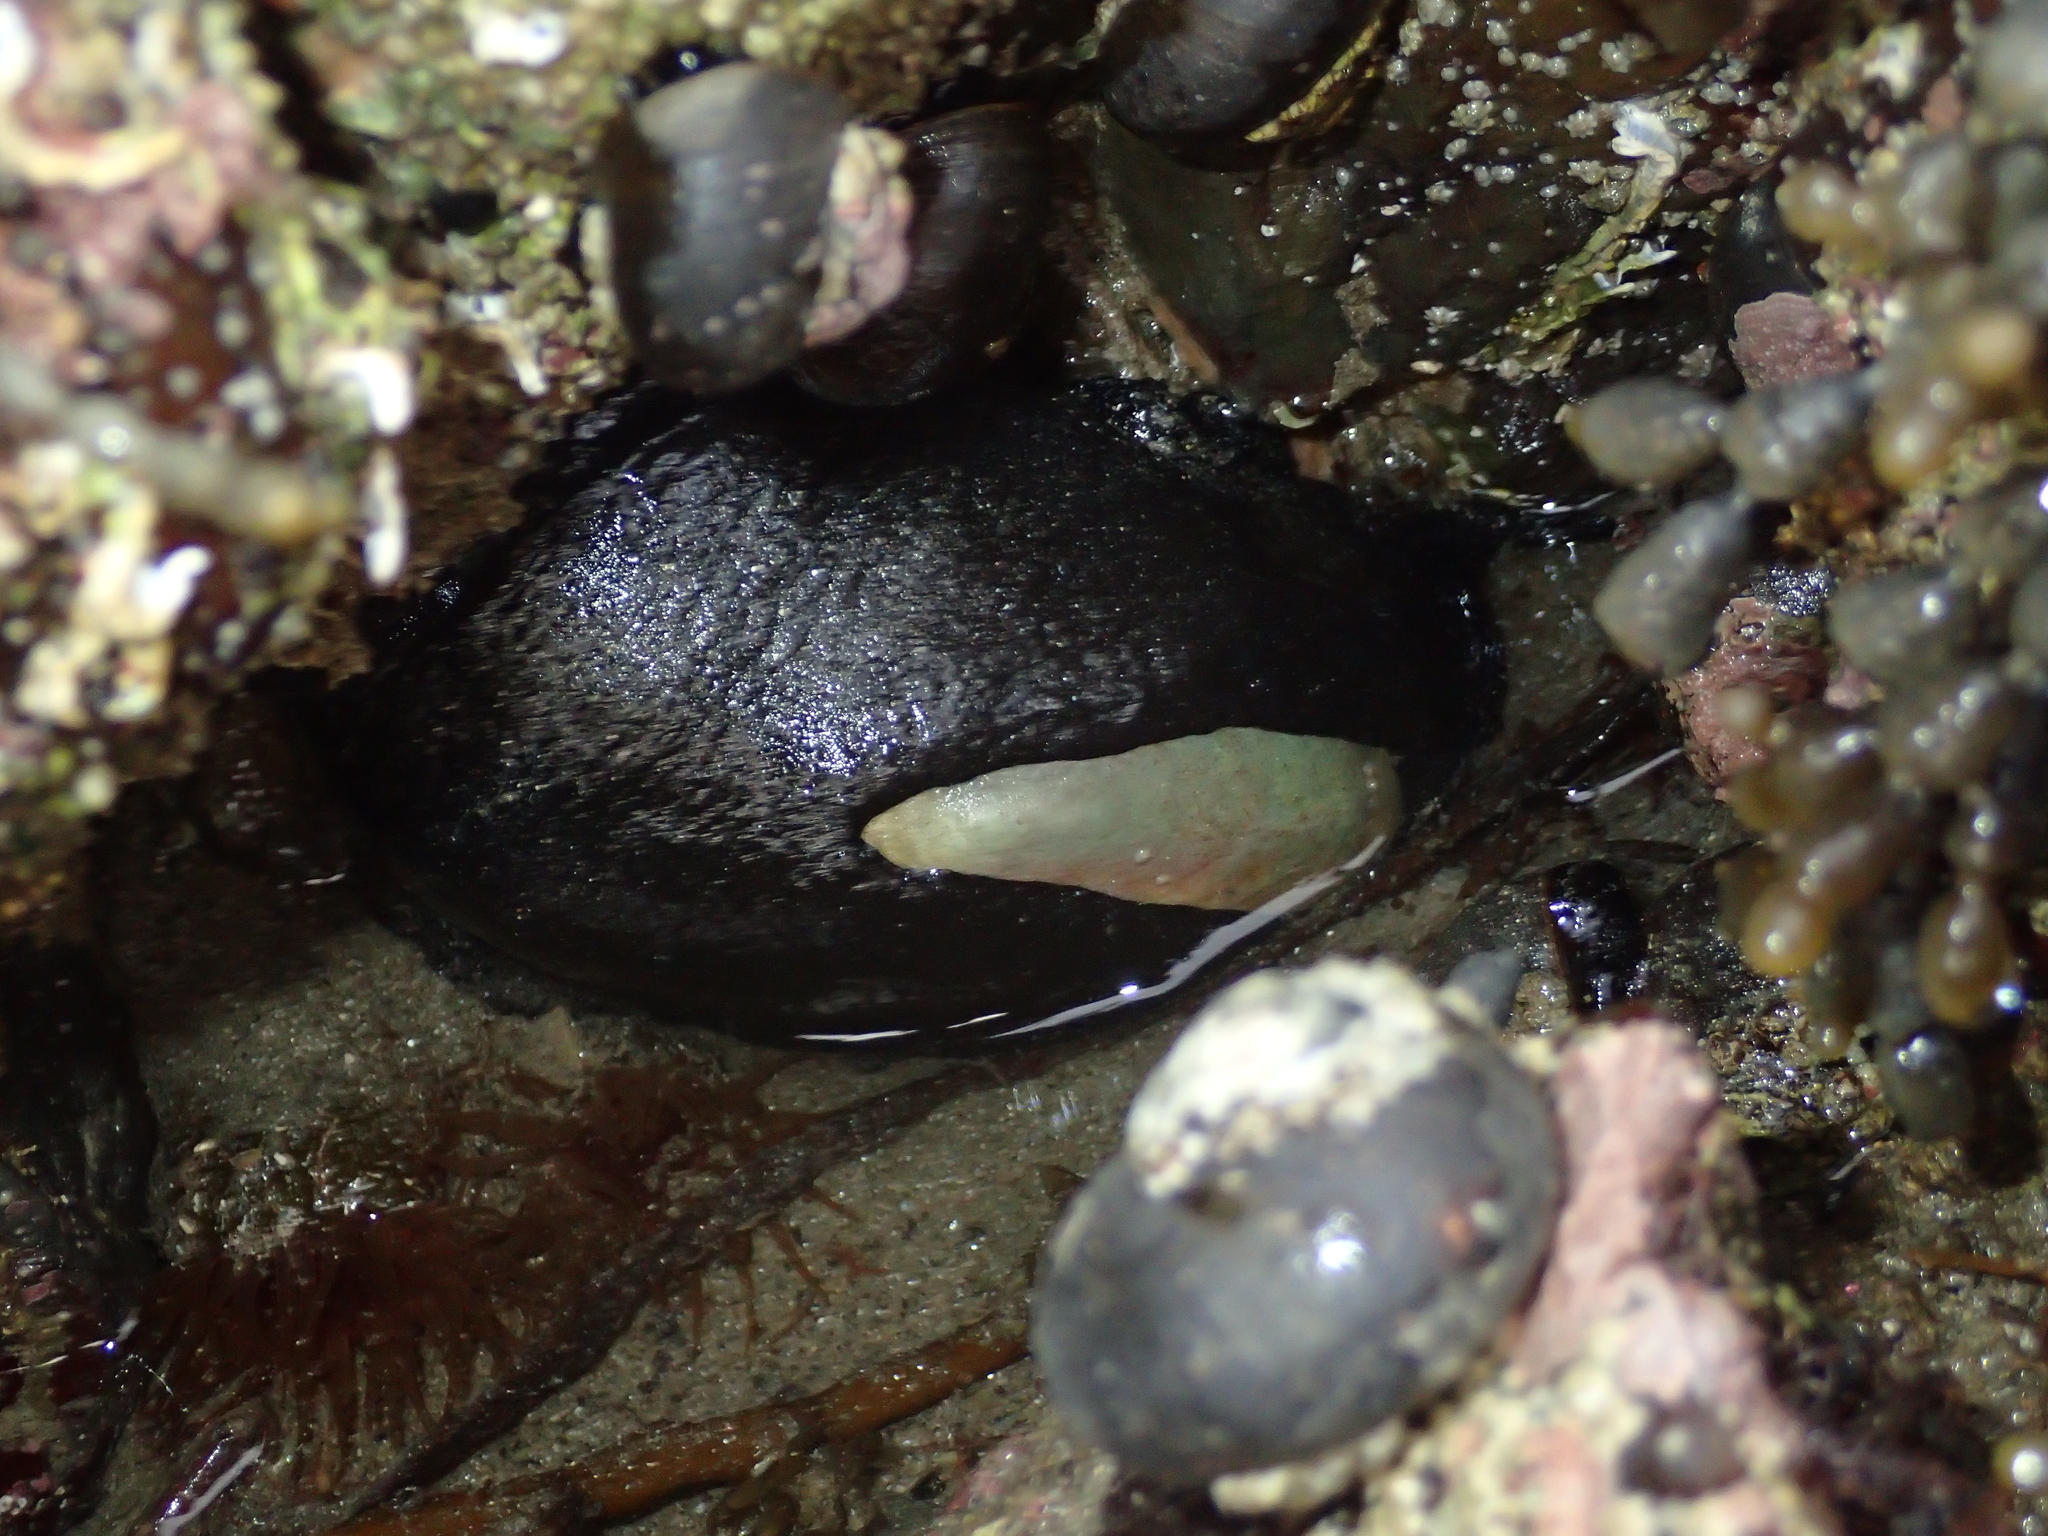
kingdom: Animalia
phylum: Mollusca
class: Gastropoda
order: Lepetellida
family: Fissurellidae
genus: Scutus
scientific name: Scutus breviculus
